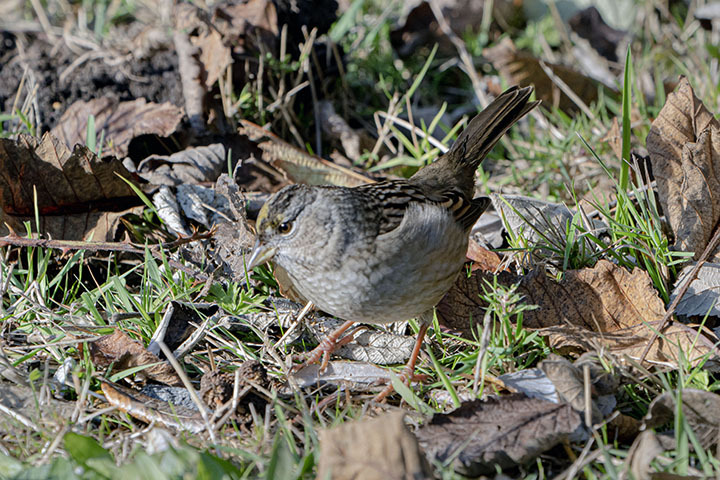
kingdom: Animalia
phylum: Chordata
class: Aves
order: Passeriformes
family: Passerellidae
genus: Zonotrichia
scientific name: Zonotrichia atricapilla
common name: Golden-crowned sparrow
